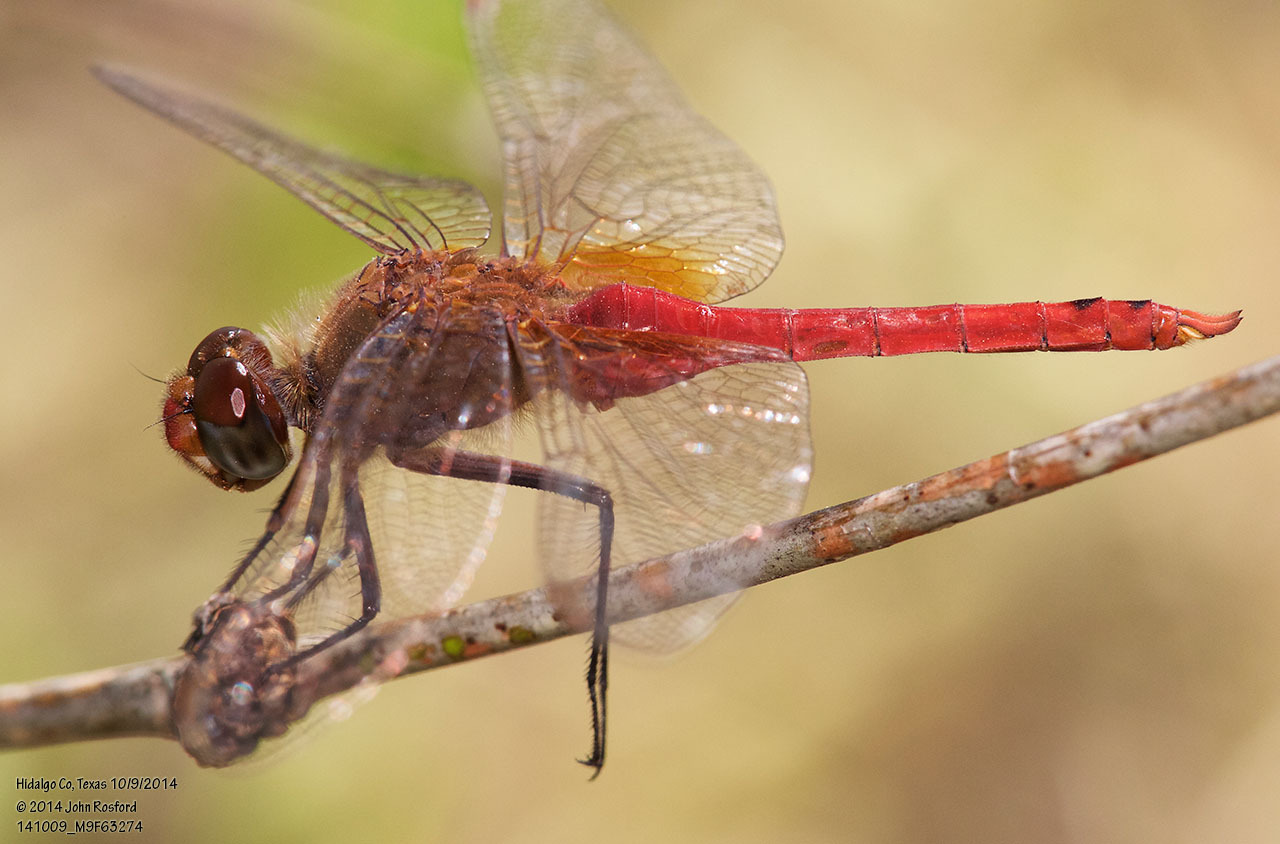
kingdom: Animalia
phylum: Arthropoda
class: Insecta
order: Odonata
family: Libellulidae
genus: Brachymesia
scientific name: Brachymesia furcata
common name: Red-taled pennant
